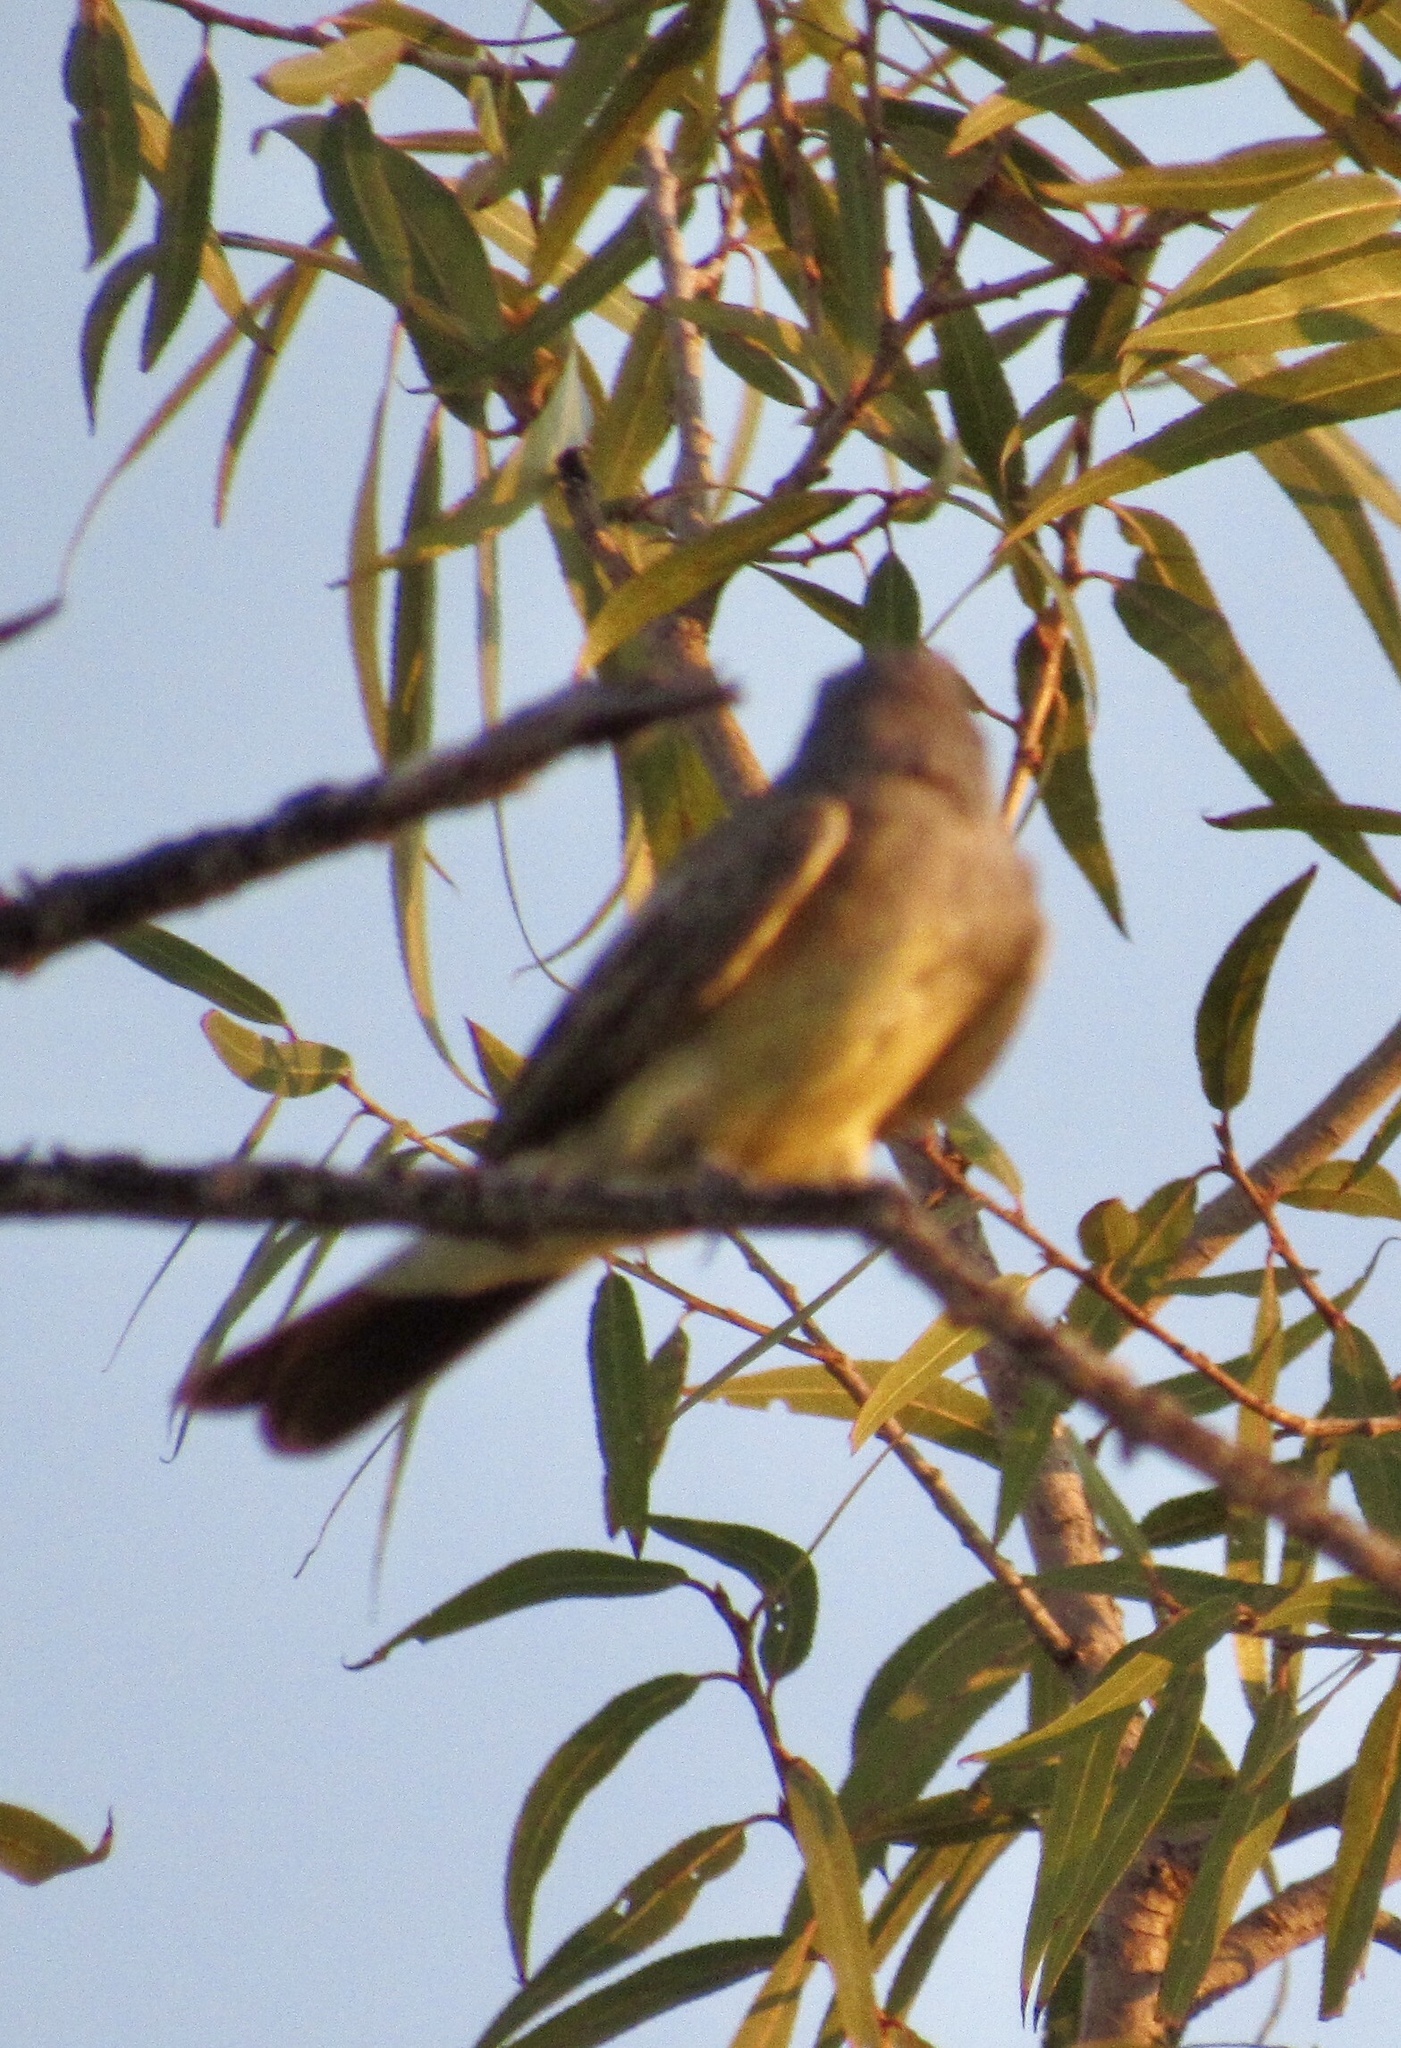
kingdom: Animalia
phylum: Chordata
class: Aves
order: Passeriformes
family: Tyrannidae
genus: Tyrannus
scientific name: Tyrannus verticalis
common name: Western kingbird
